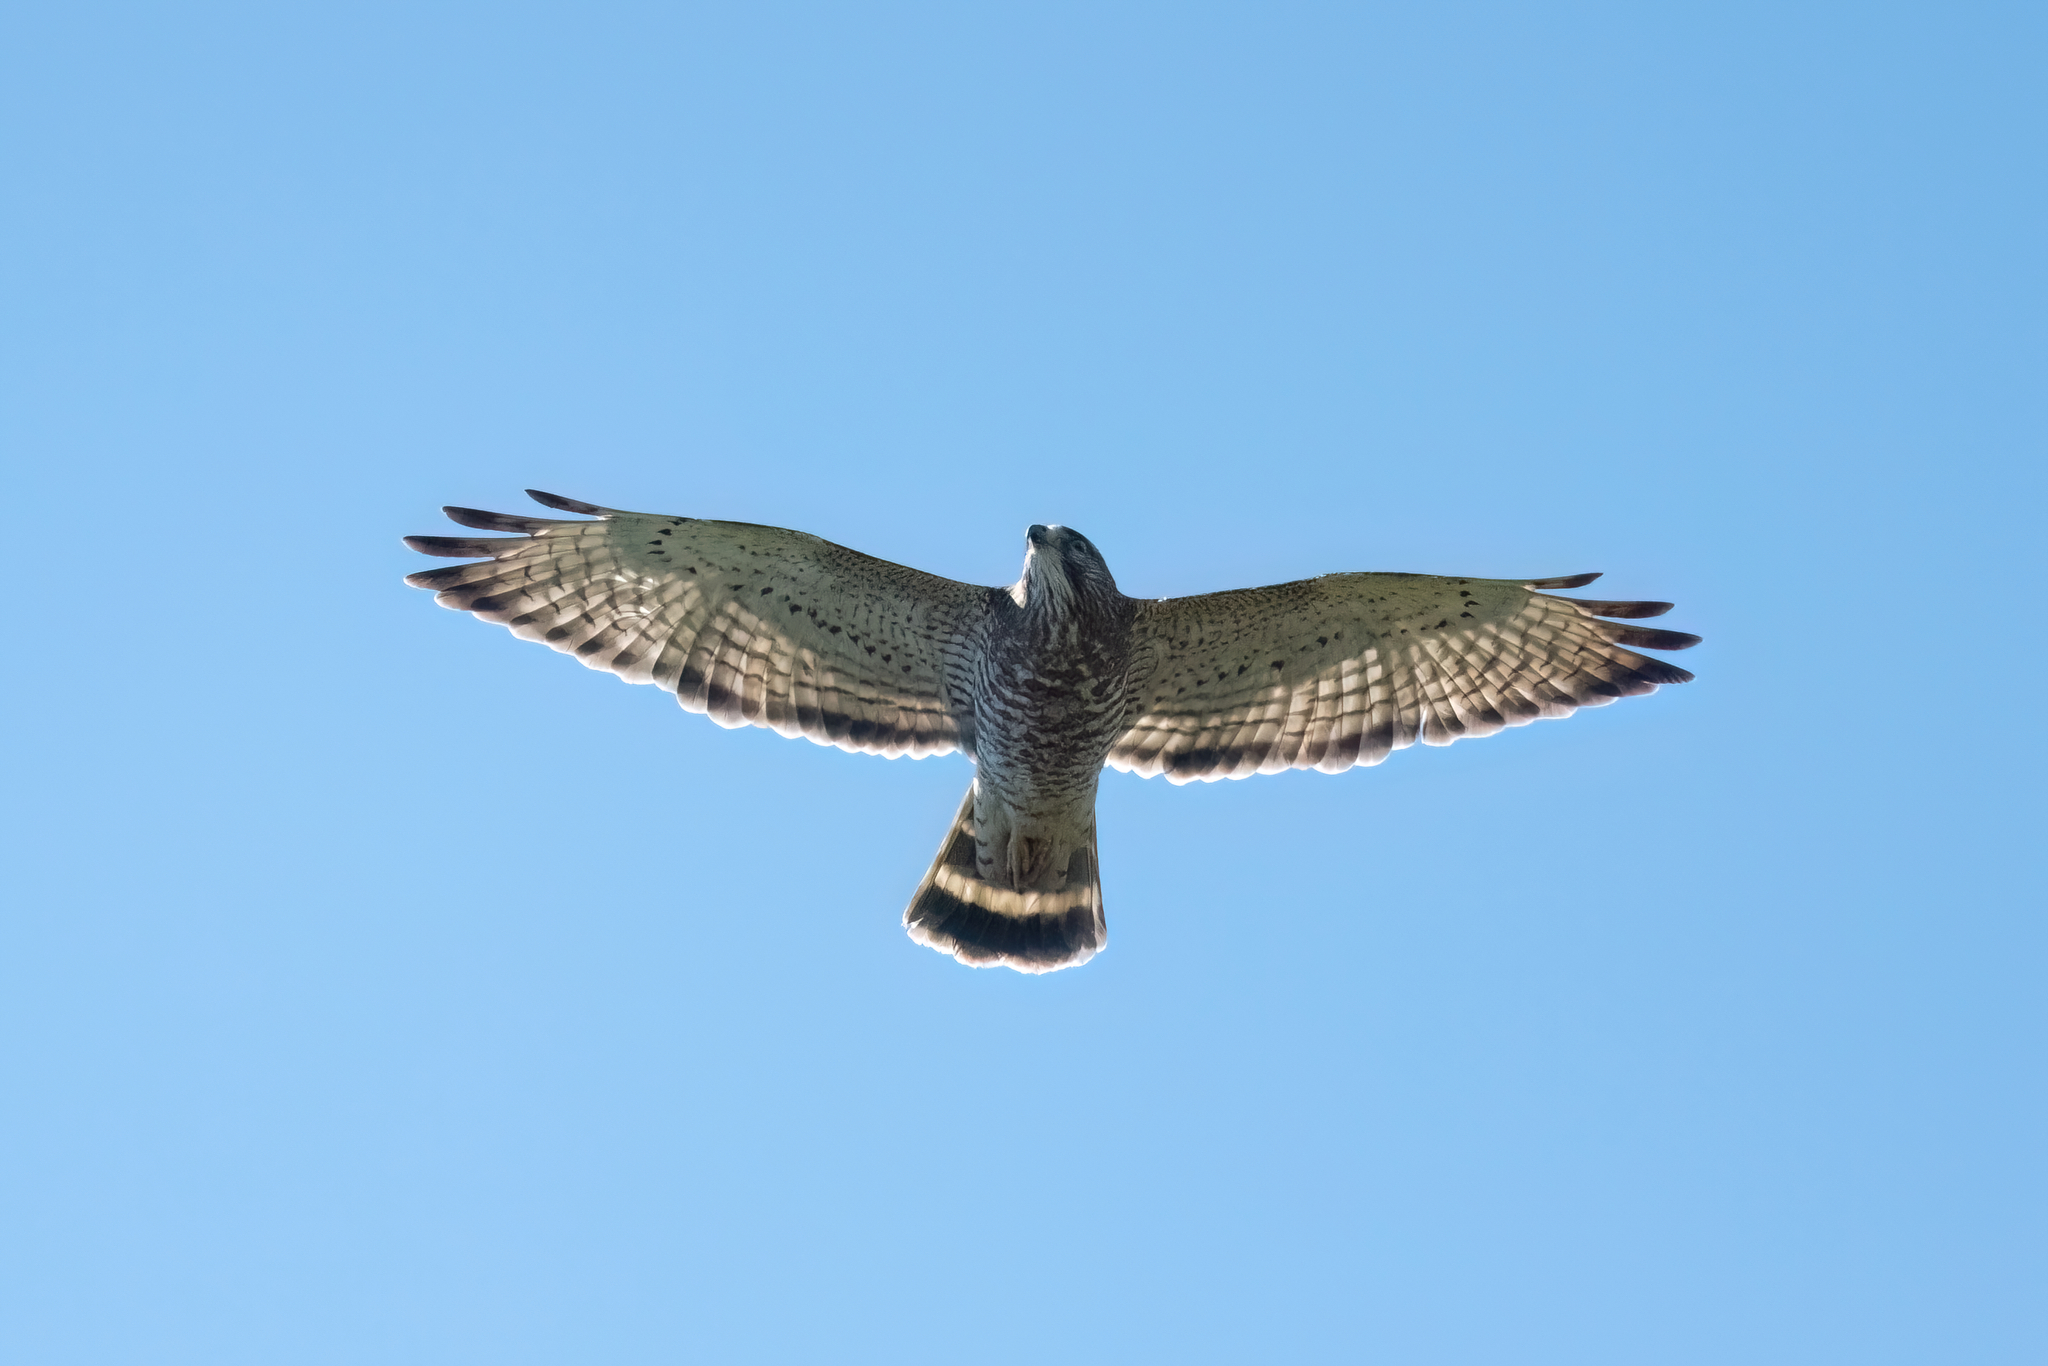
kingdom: Animalia
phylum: Chordata
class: Aves
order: Accipitriformes
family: Accipitridae
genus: Buteo
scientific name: Buteo platypterus
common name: Broad-winged hawk
